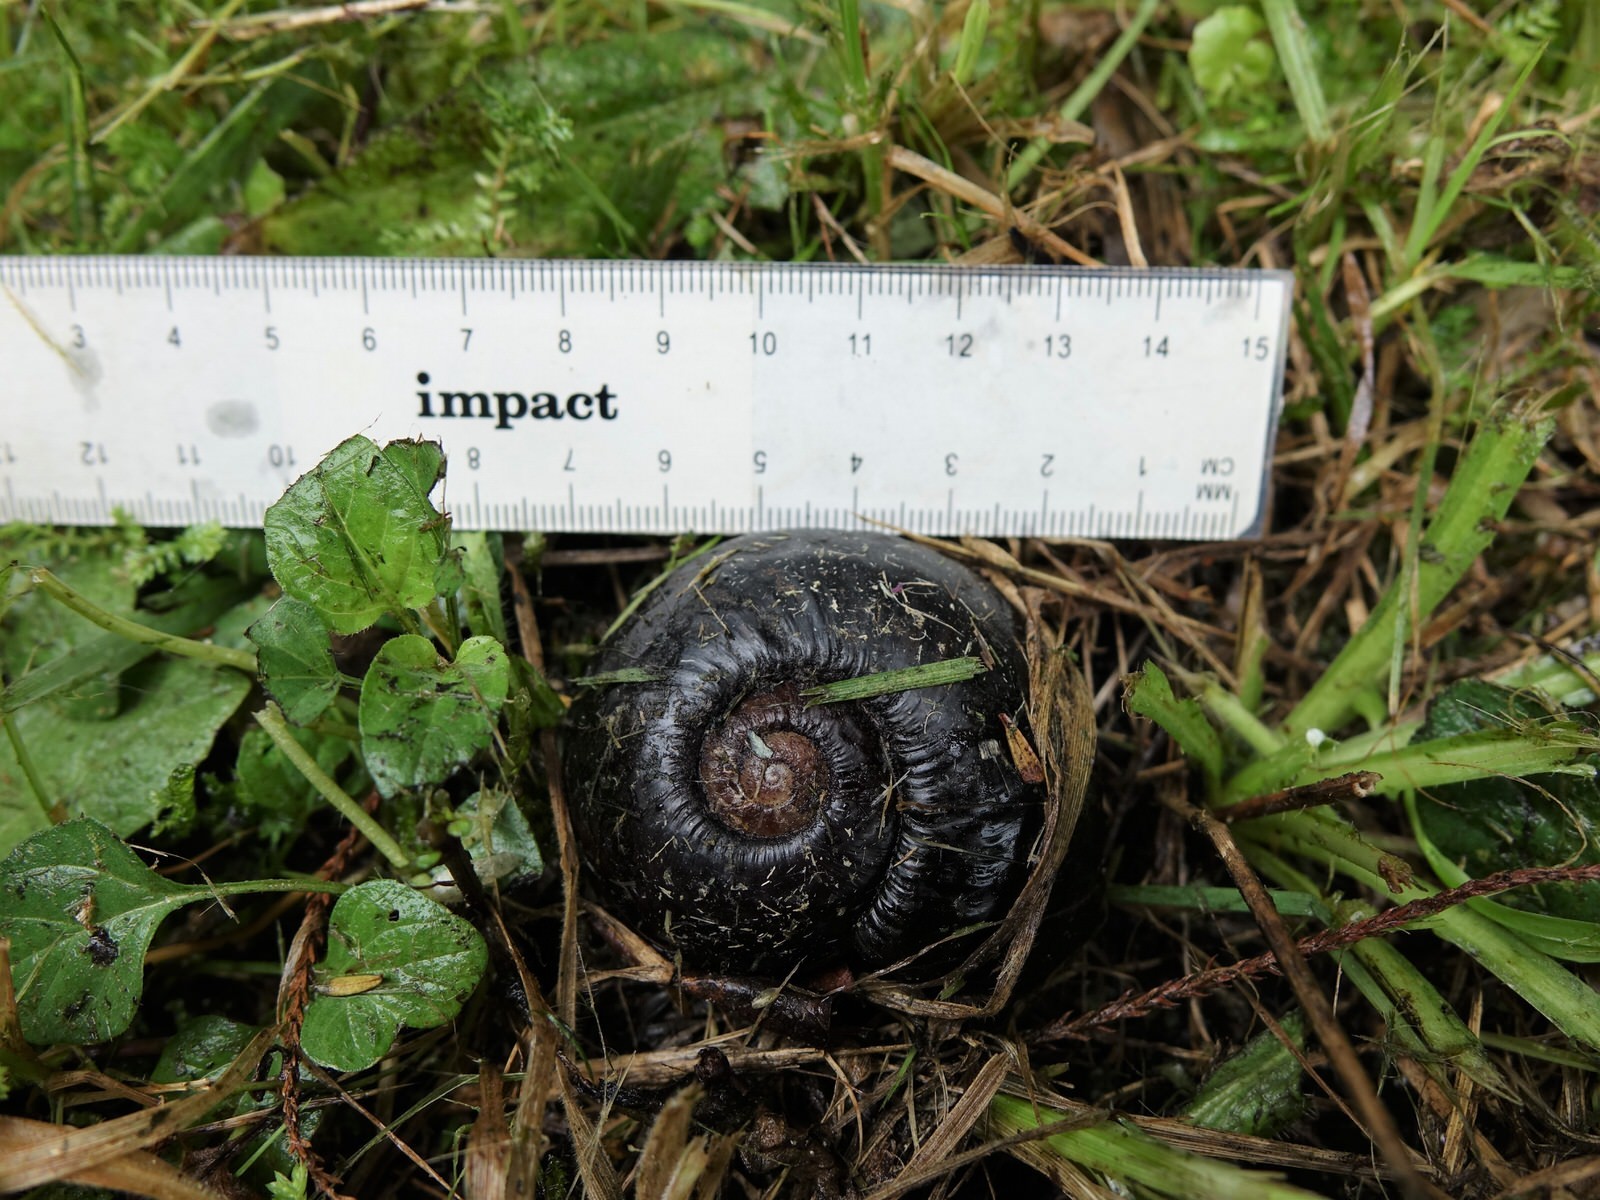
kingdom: Animalia
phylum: Mollusca
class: Gastropoda
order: Stylommatophora
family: Rhytididae
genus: Paryphanta
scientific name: Paryphanta busbyi
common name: Kauri snail
